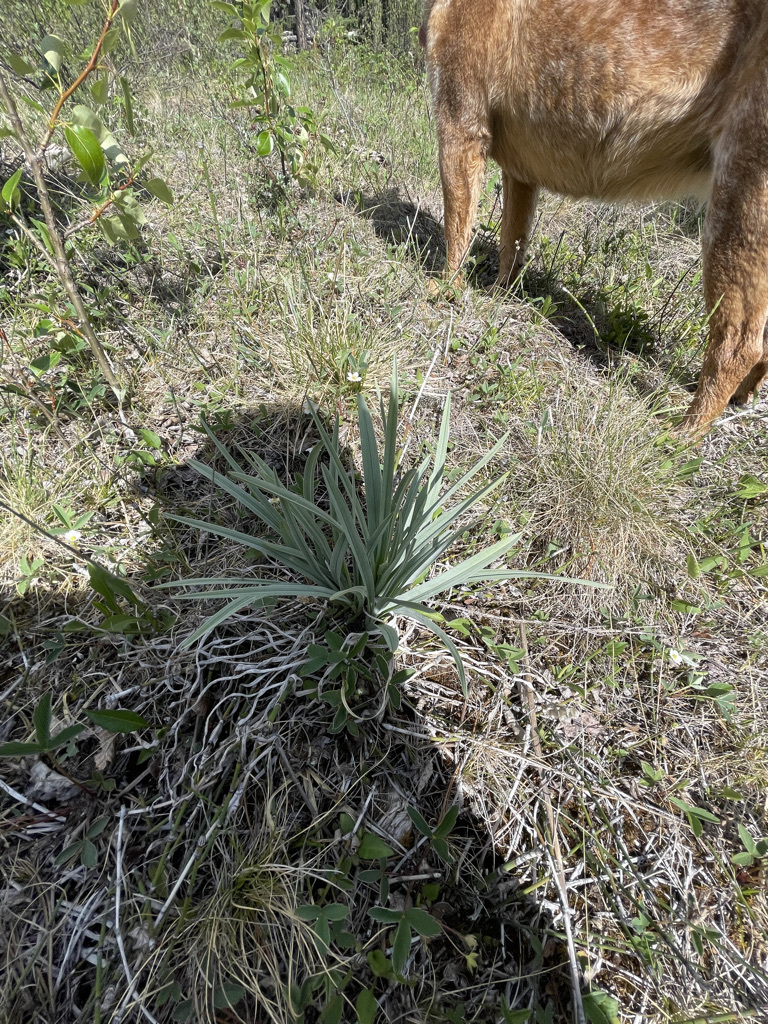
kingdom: Plantae
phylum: Tracheophyta
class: Liliopsida
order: Liliales
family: Melanthiaceae
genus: Anticlea
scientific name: Anticlea elegans
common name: Mountain death camas
